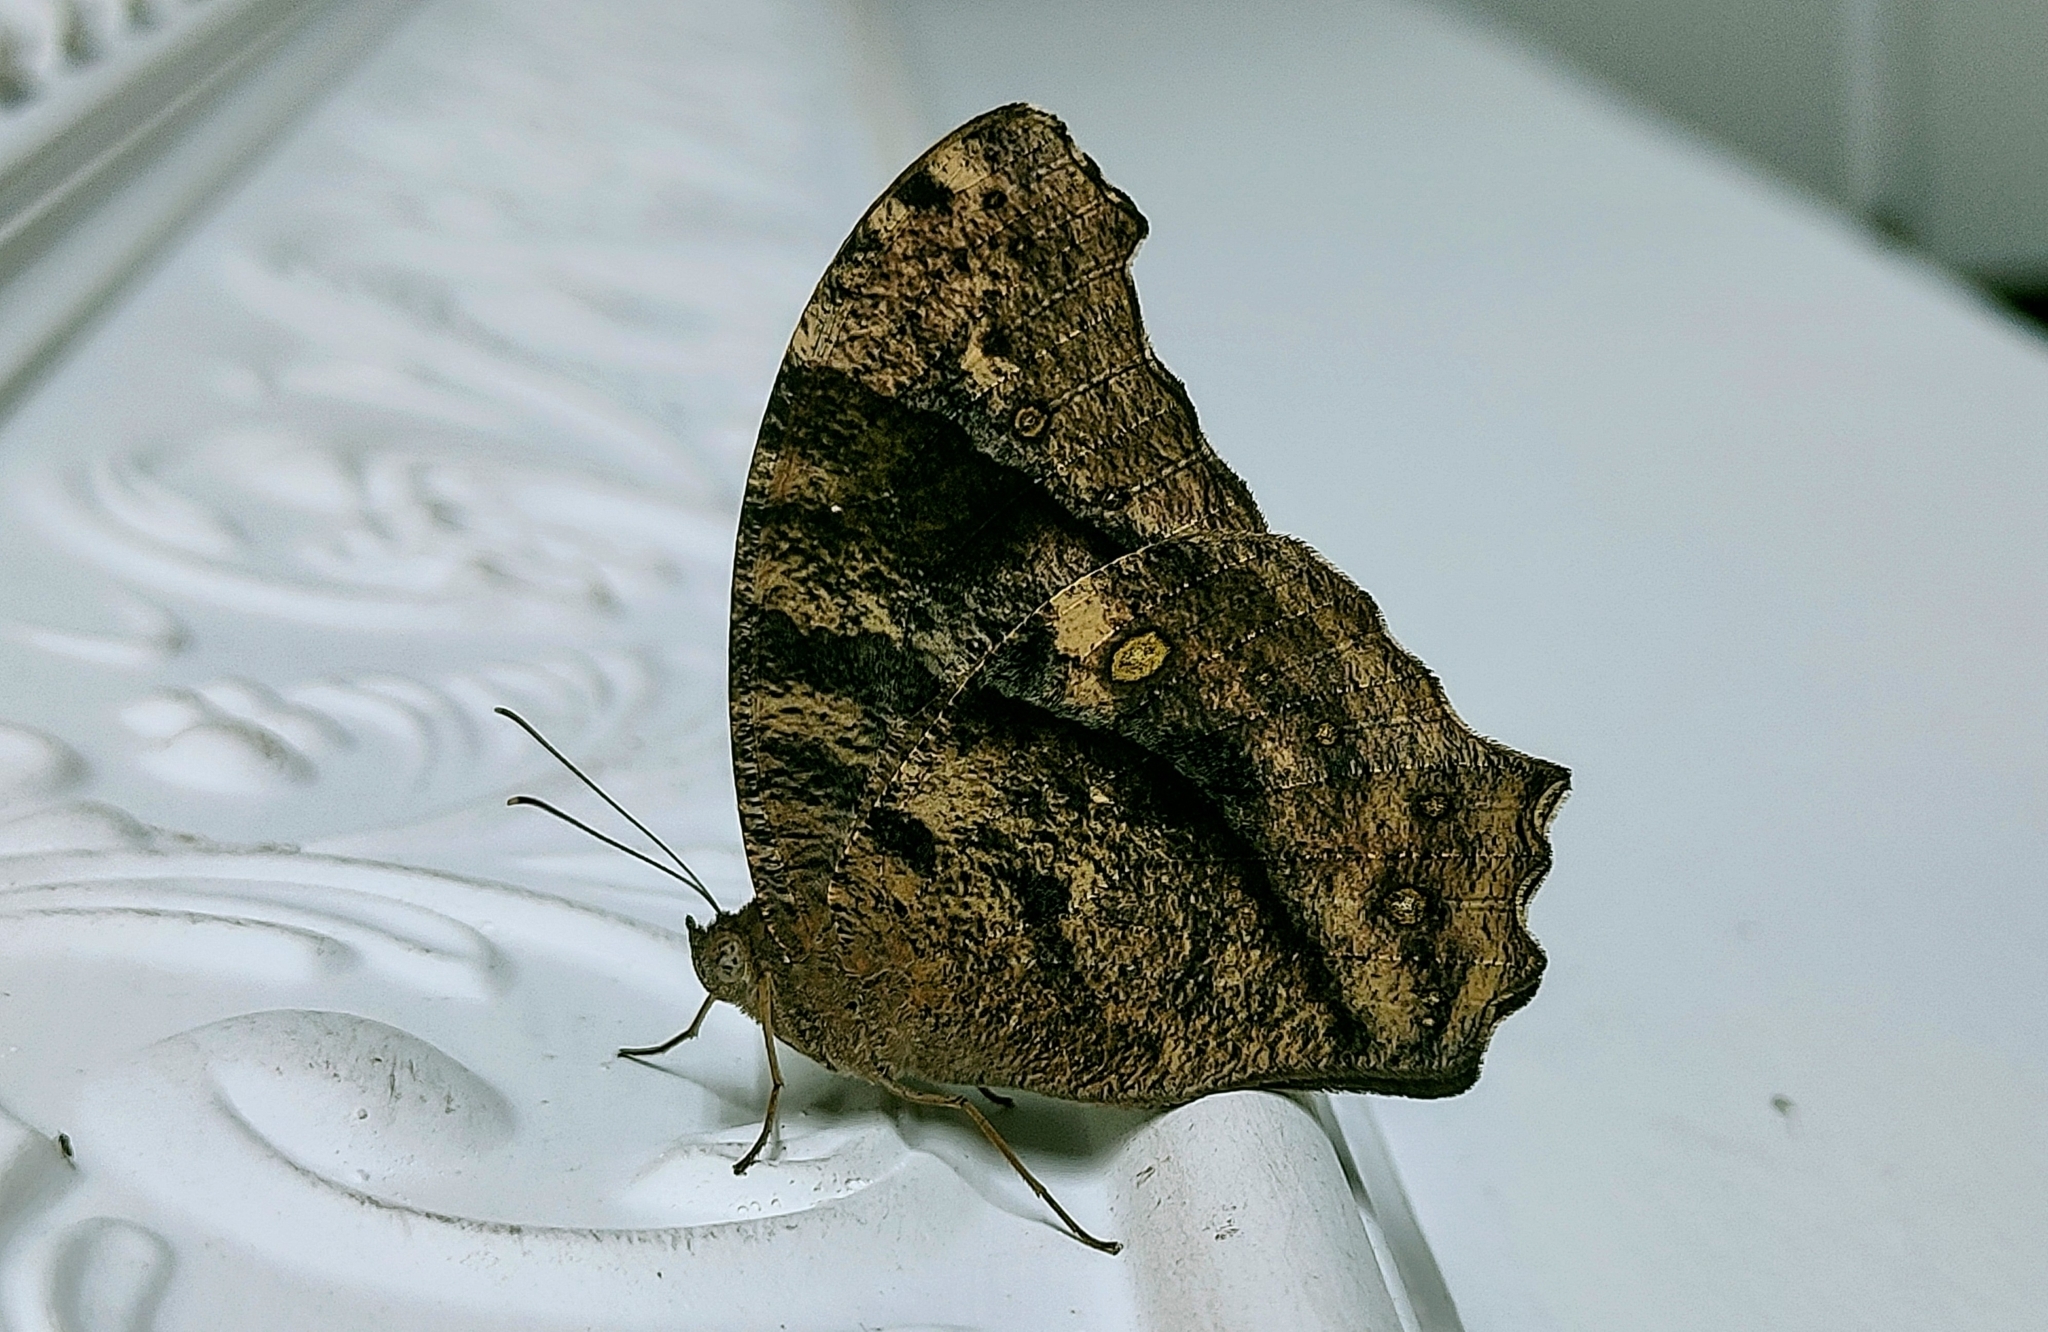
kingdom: Animalia
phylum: Arthropoda
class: Insecta
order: Lepidoptera
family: Nymphalidae
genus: Melanitis
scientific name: Melanitis leda
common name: Twilight brown
